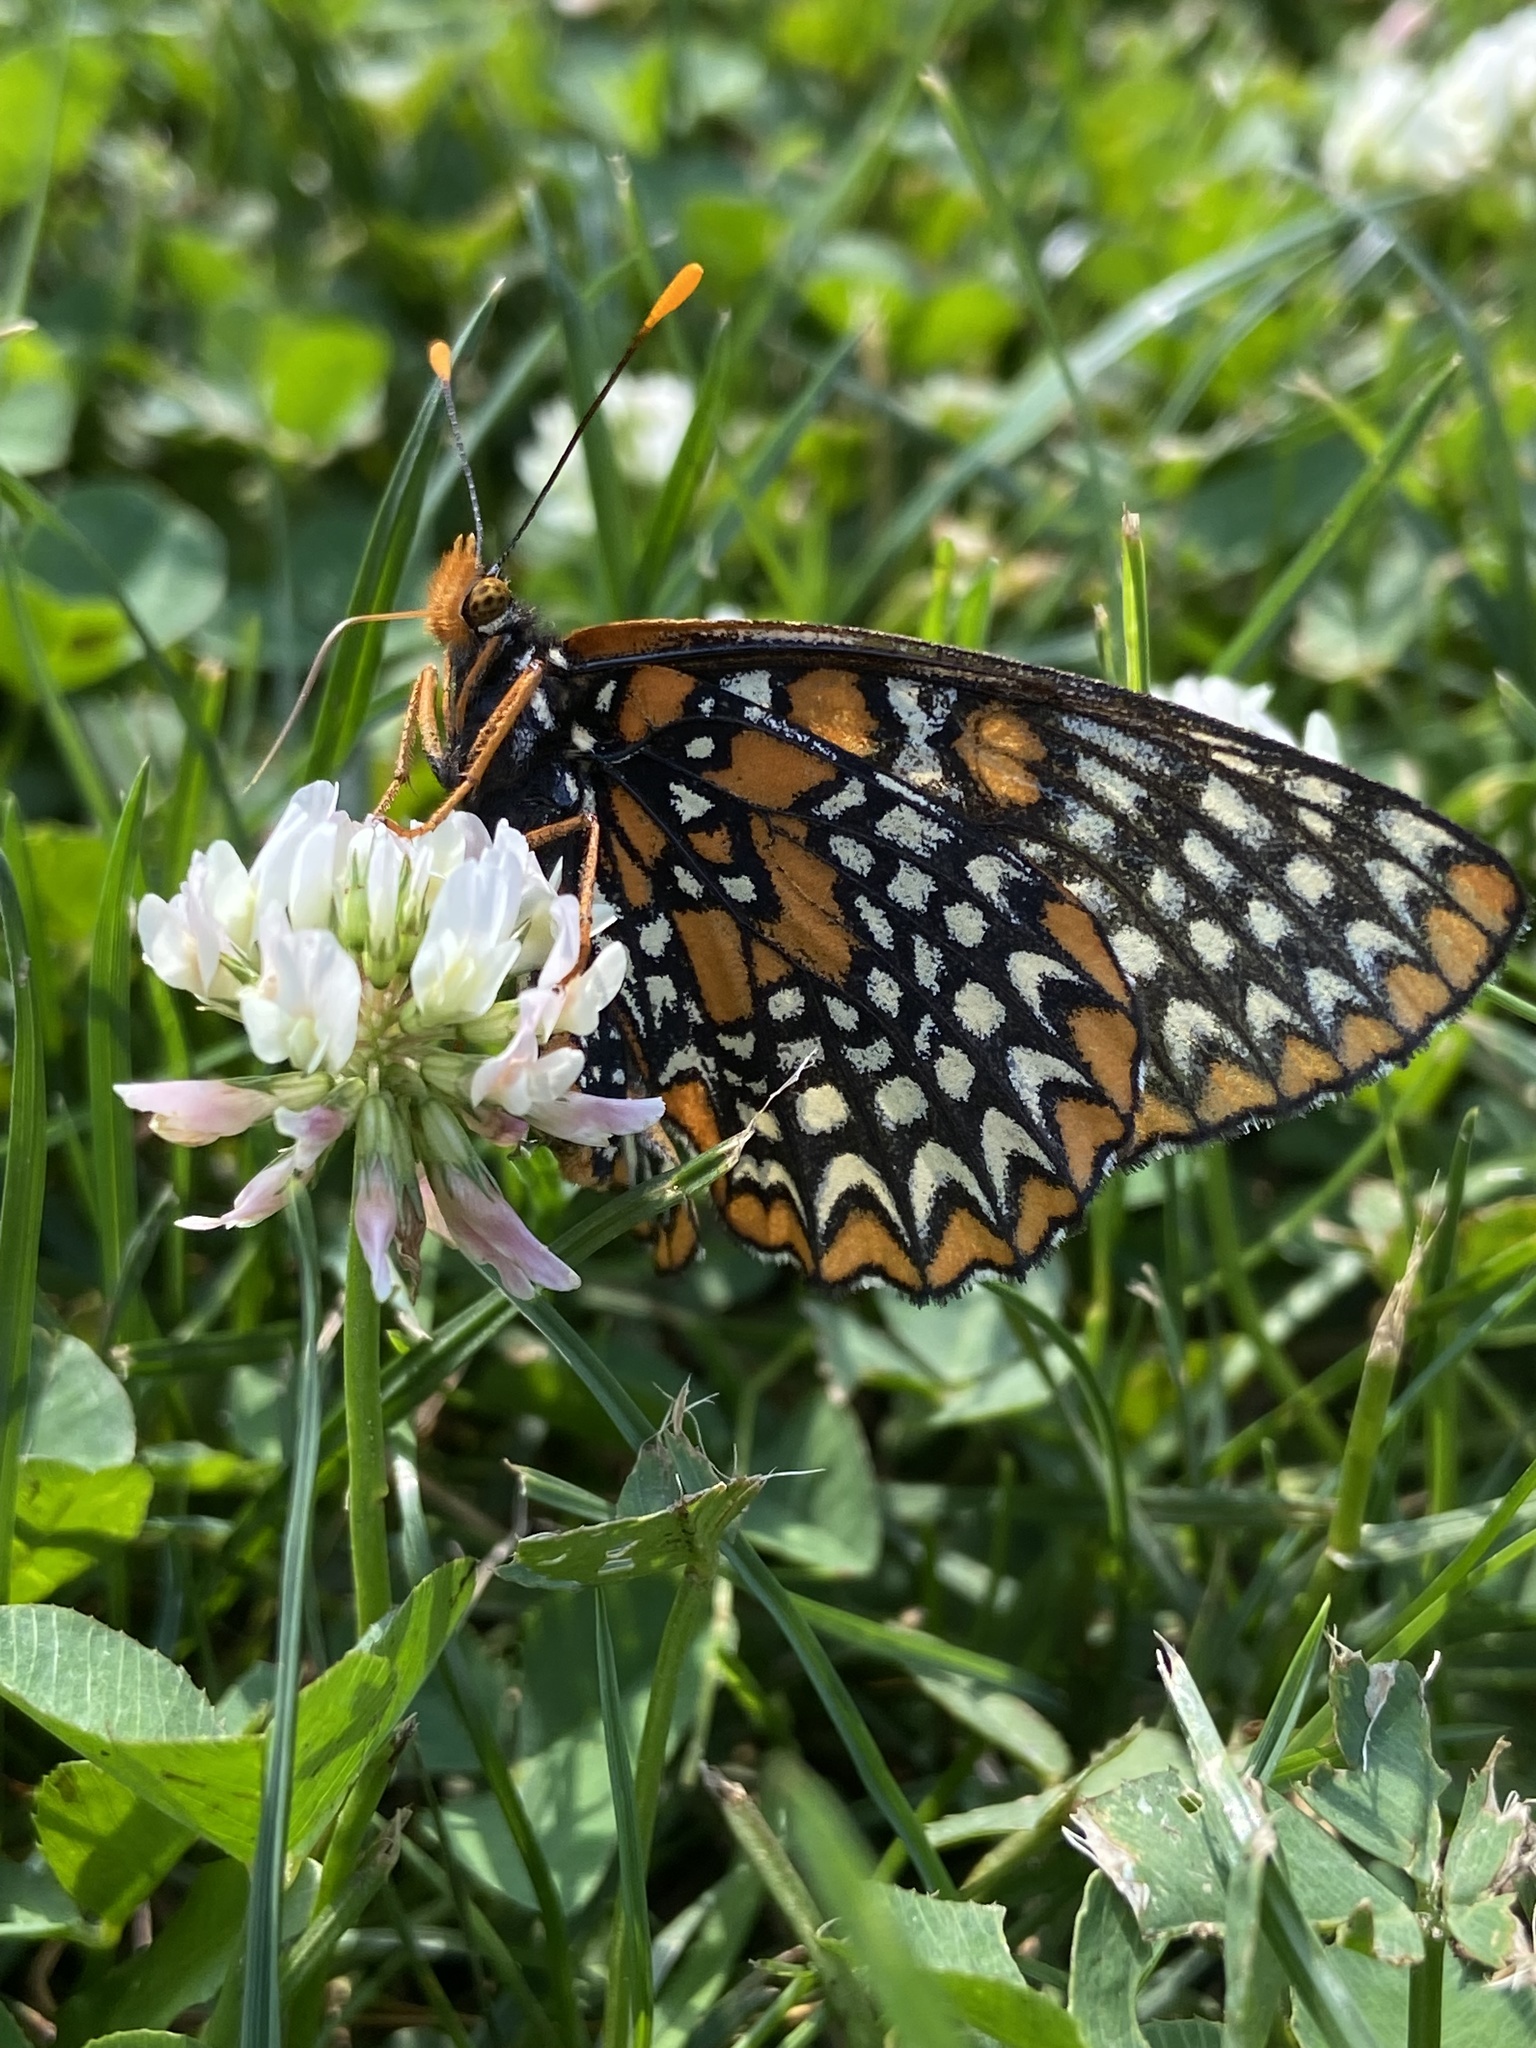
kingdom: Animalia
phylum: Arthropoda
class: Insecta
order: Lepidoptera
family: Nymphalidae
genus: Euphydryas
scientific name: Euphydryas phaeton
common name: Baltimore checkerspot
